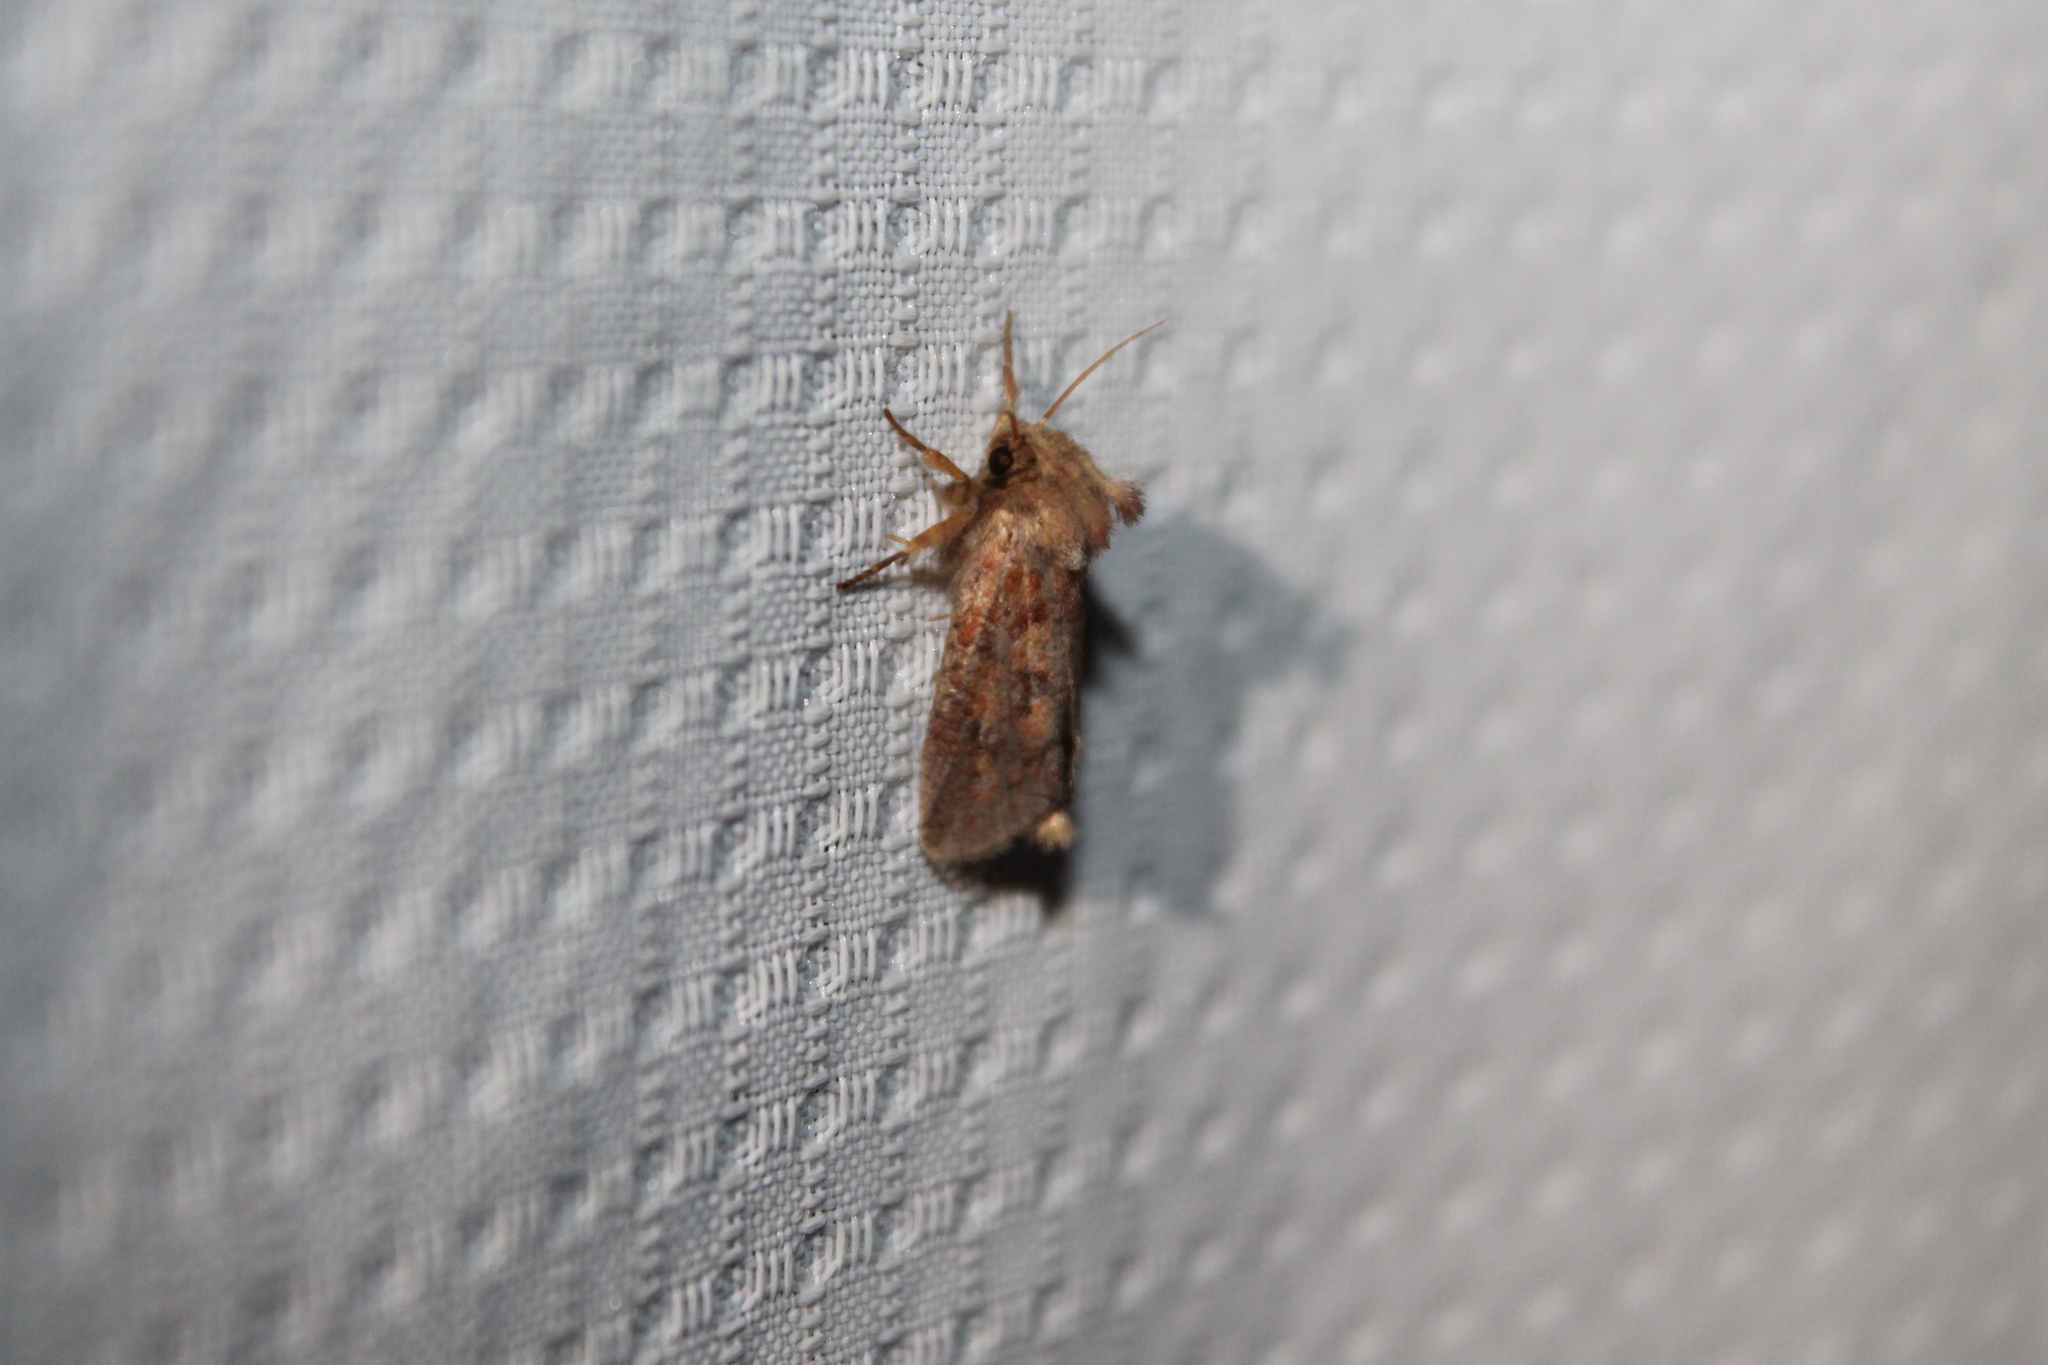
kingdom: Animalia
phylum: Arthropoda
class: Insecta
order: Lepidoptera
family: Tineidae
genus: Acrolophus
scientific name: Acrolophus plumifrontella
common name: Eastern grass tubeworm moth
